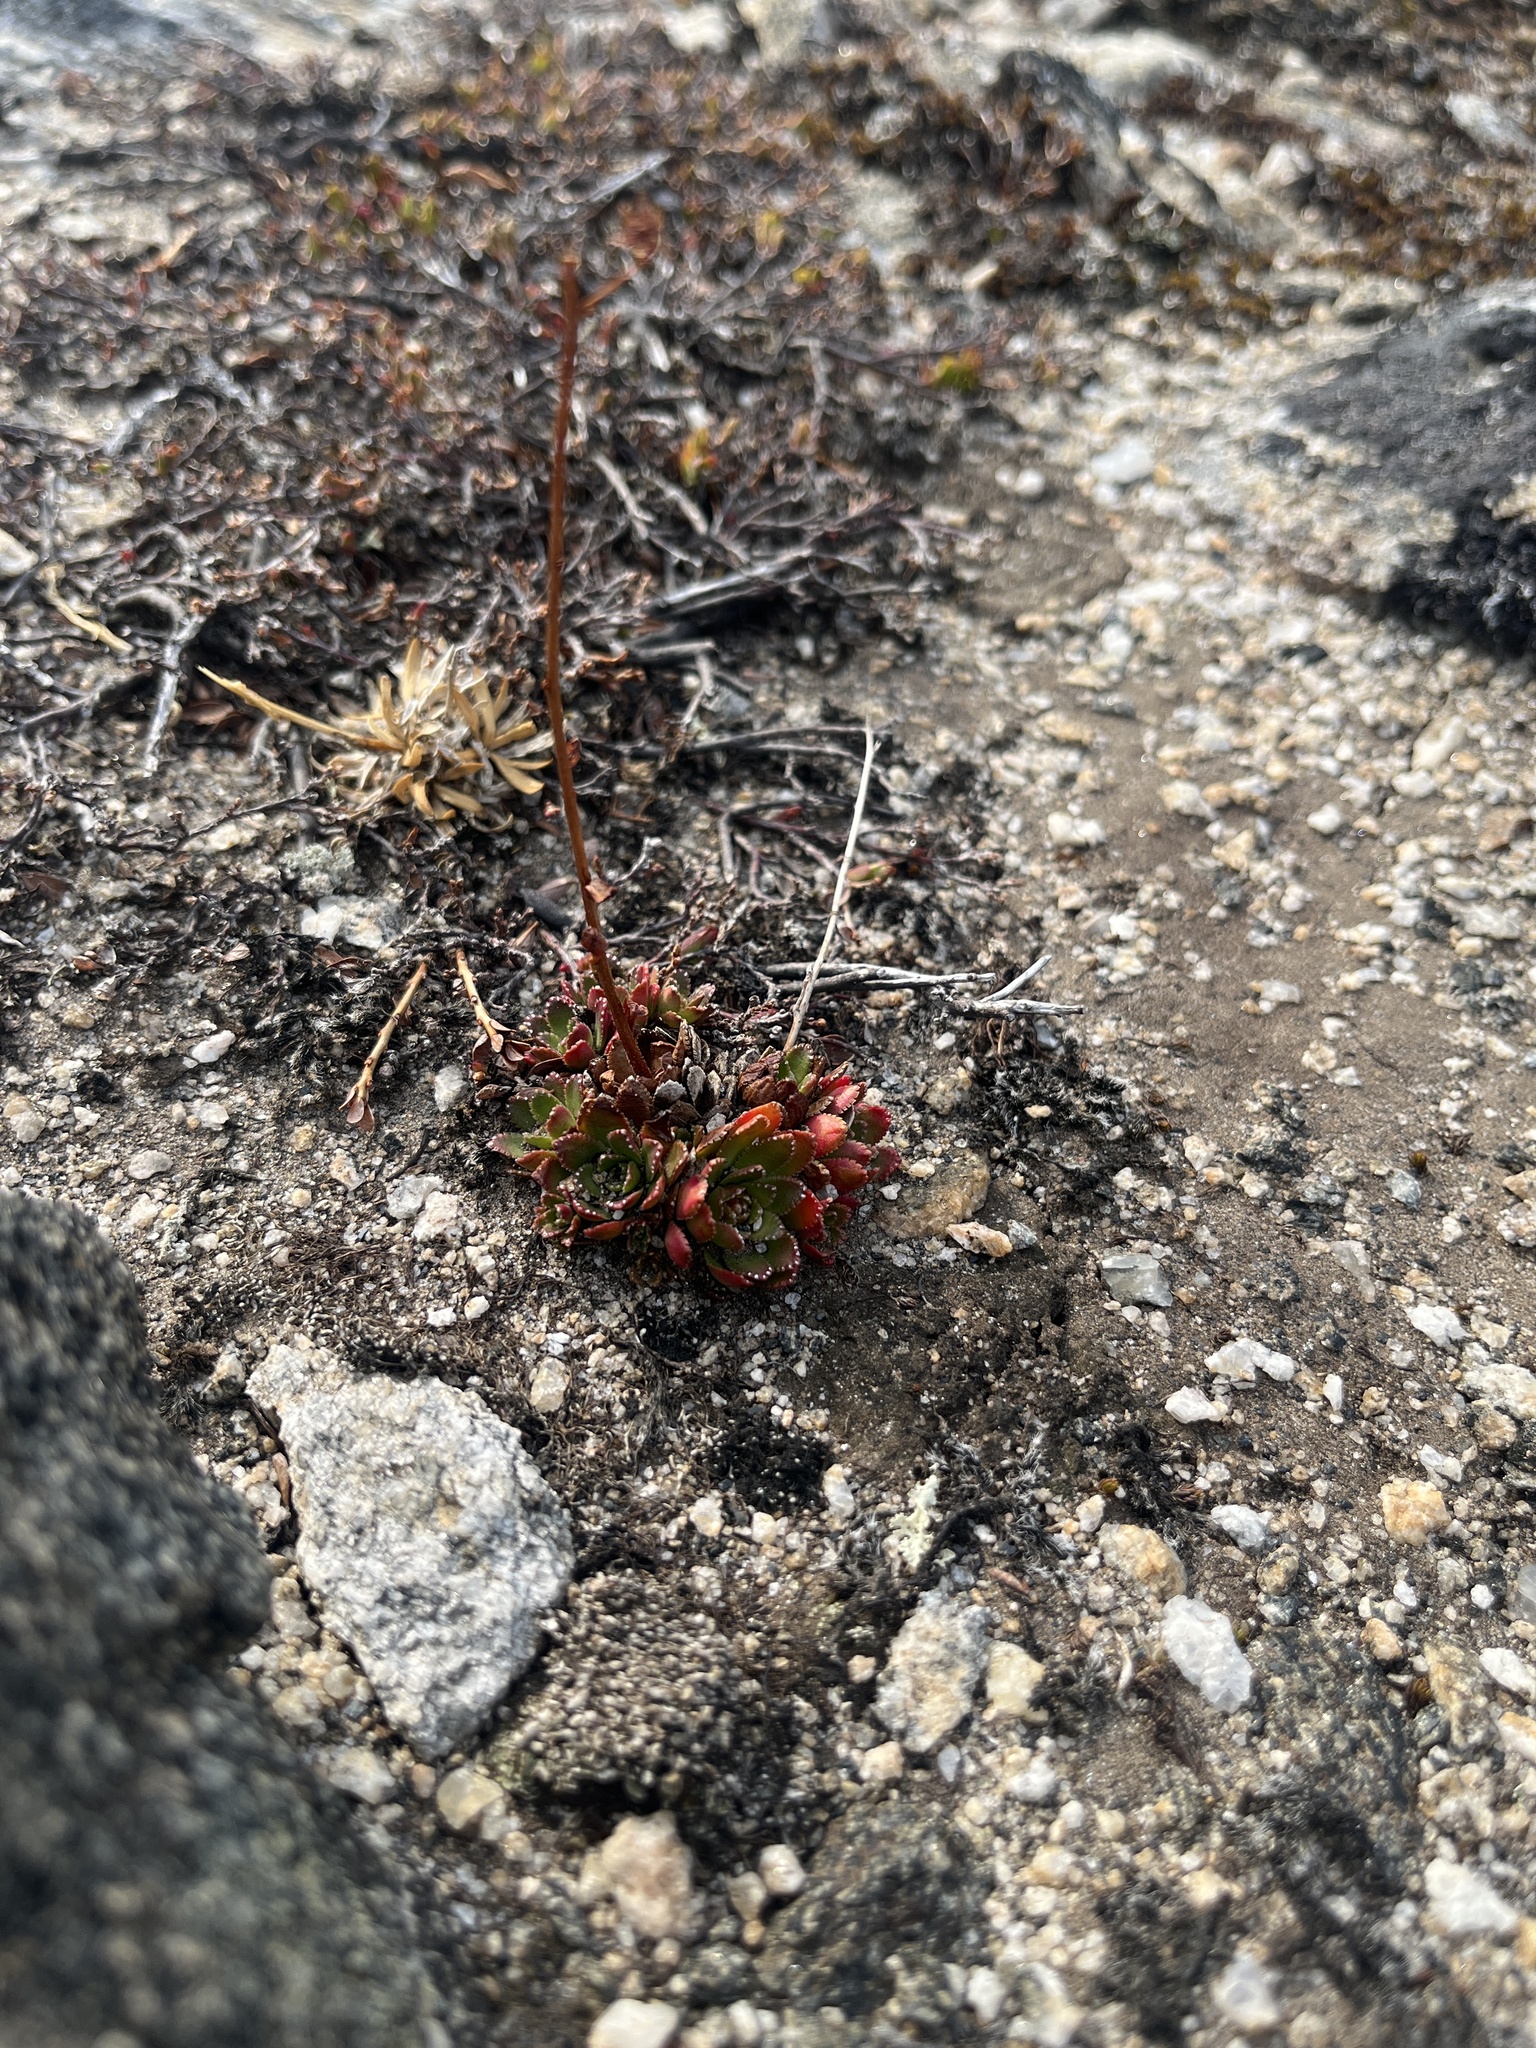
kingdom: Plantae
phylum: Tracheophyta
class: Magnoliopsida
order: Saxifragales
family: Saxifragaceae
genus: Saxifraga
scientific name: Saxifraga paniculata
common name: Livelong saxifrage
